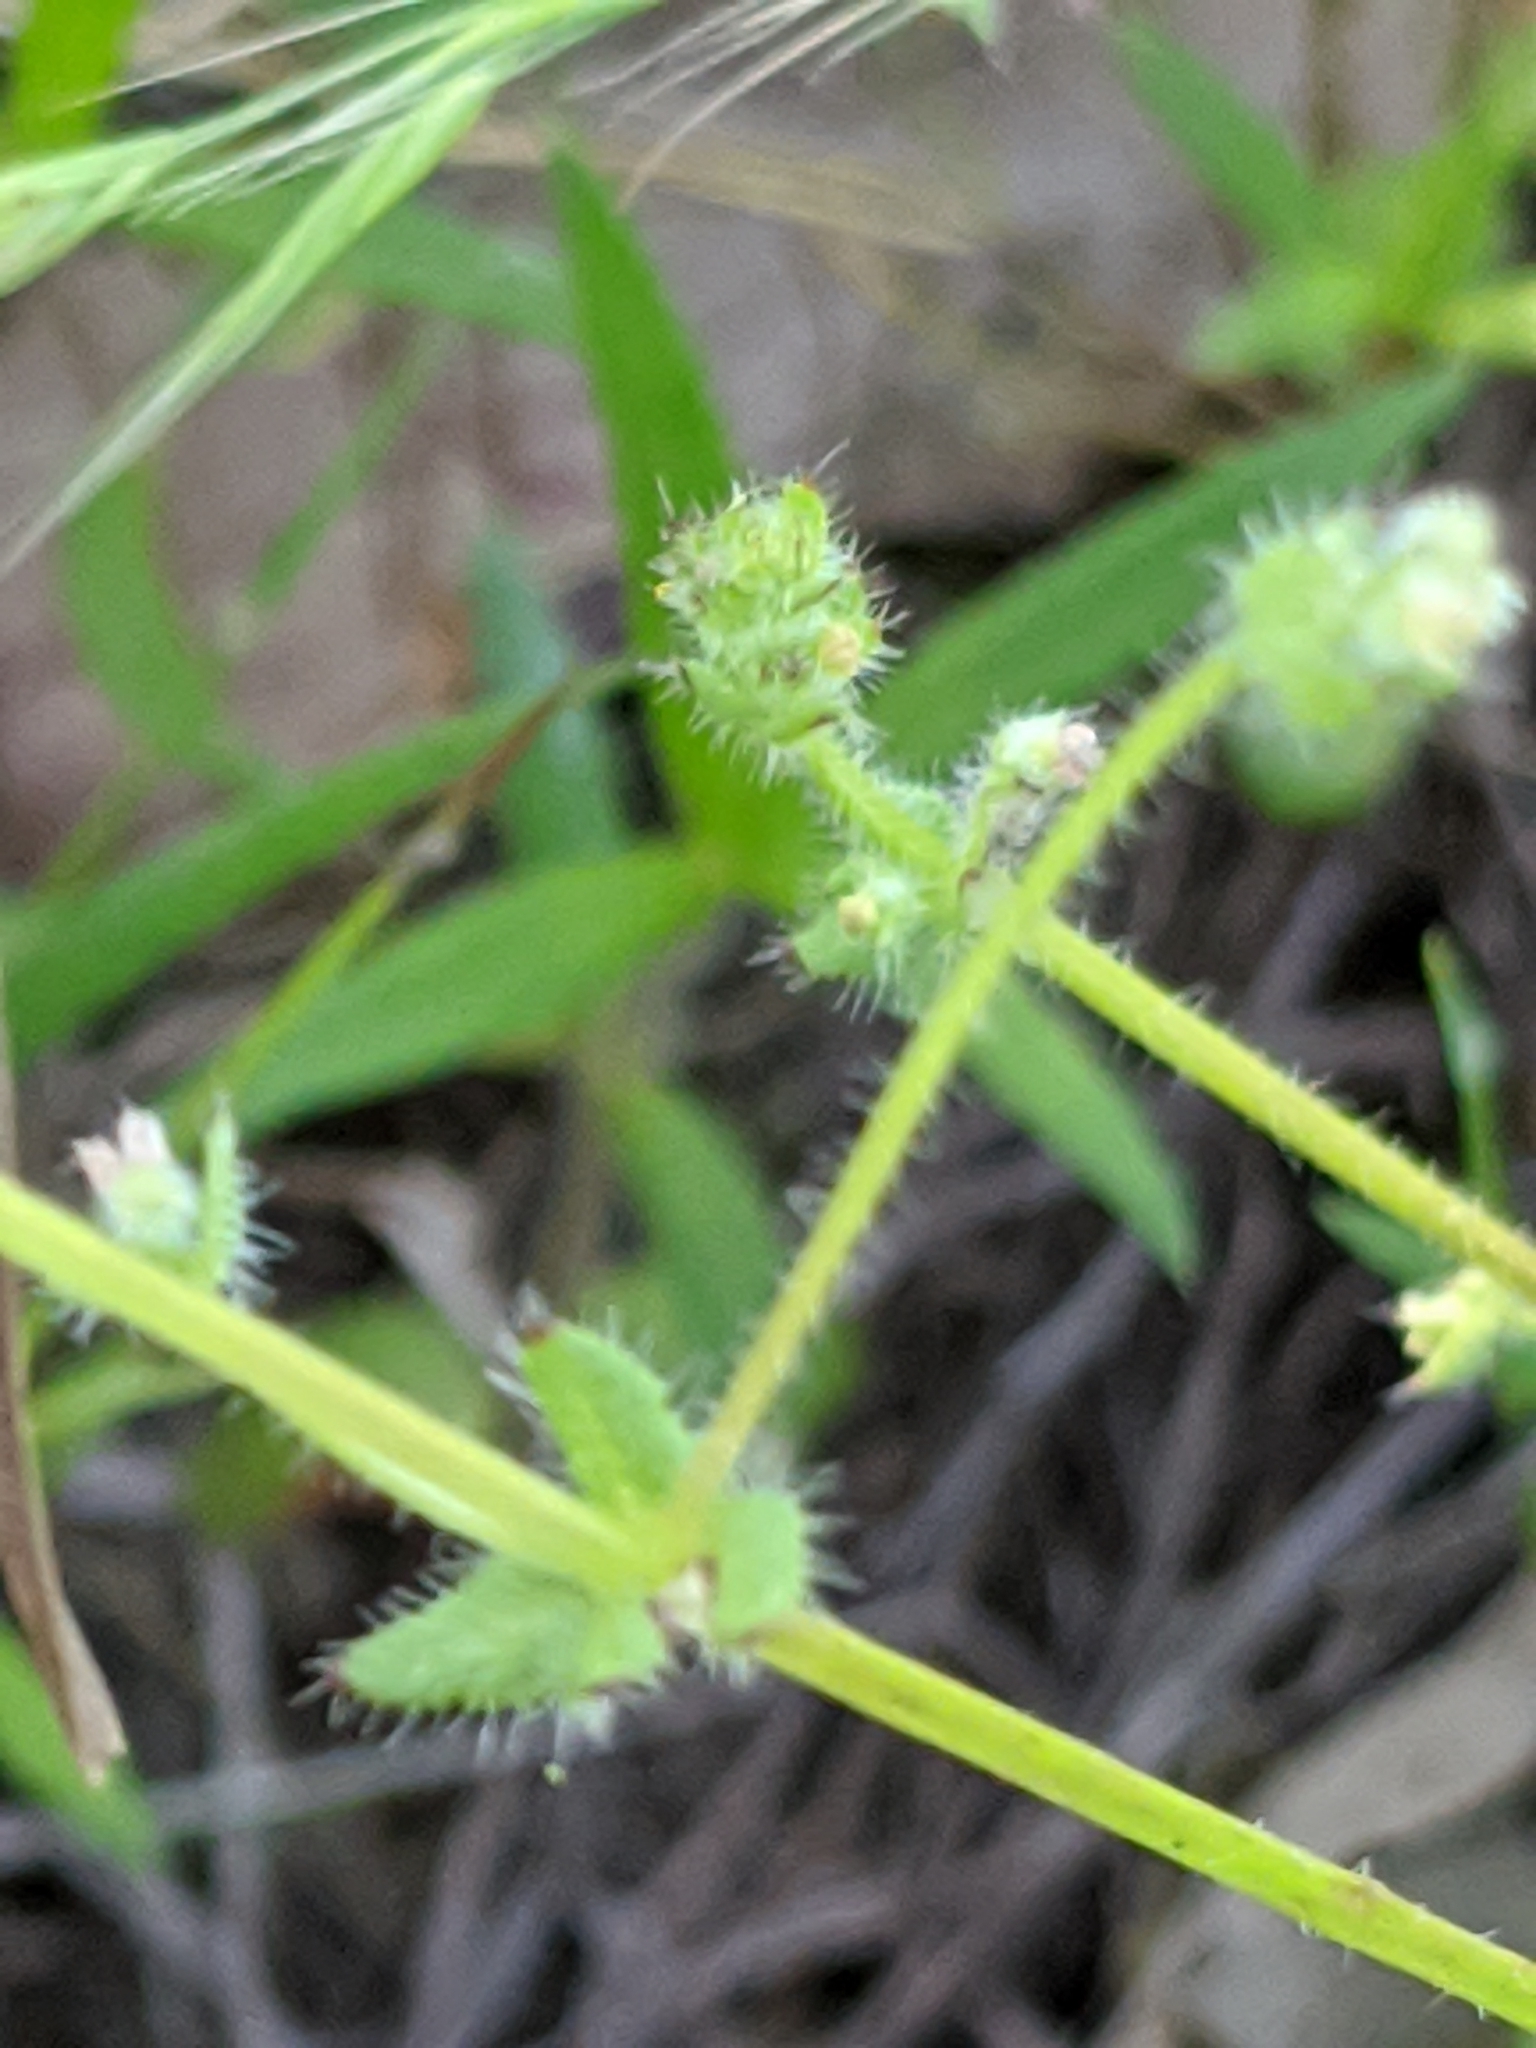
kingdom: Plantae
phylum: Tracheophyta
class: Magnoliopsida
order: Gentianales
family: Rubiaceae
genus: Galium
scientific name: Galium virgatum
